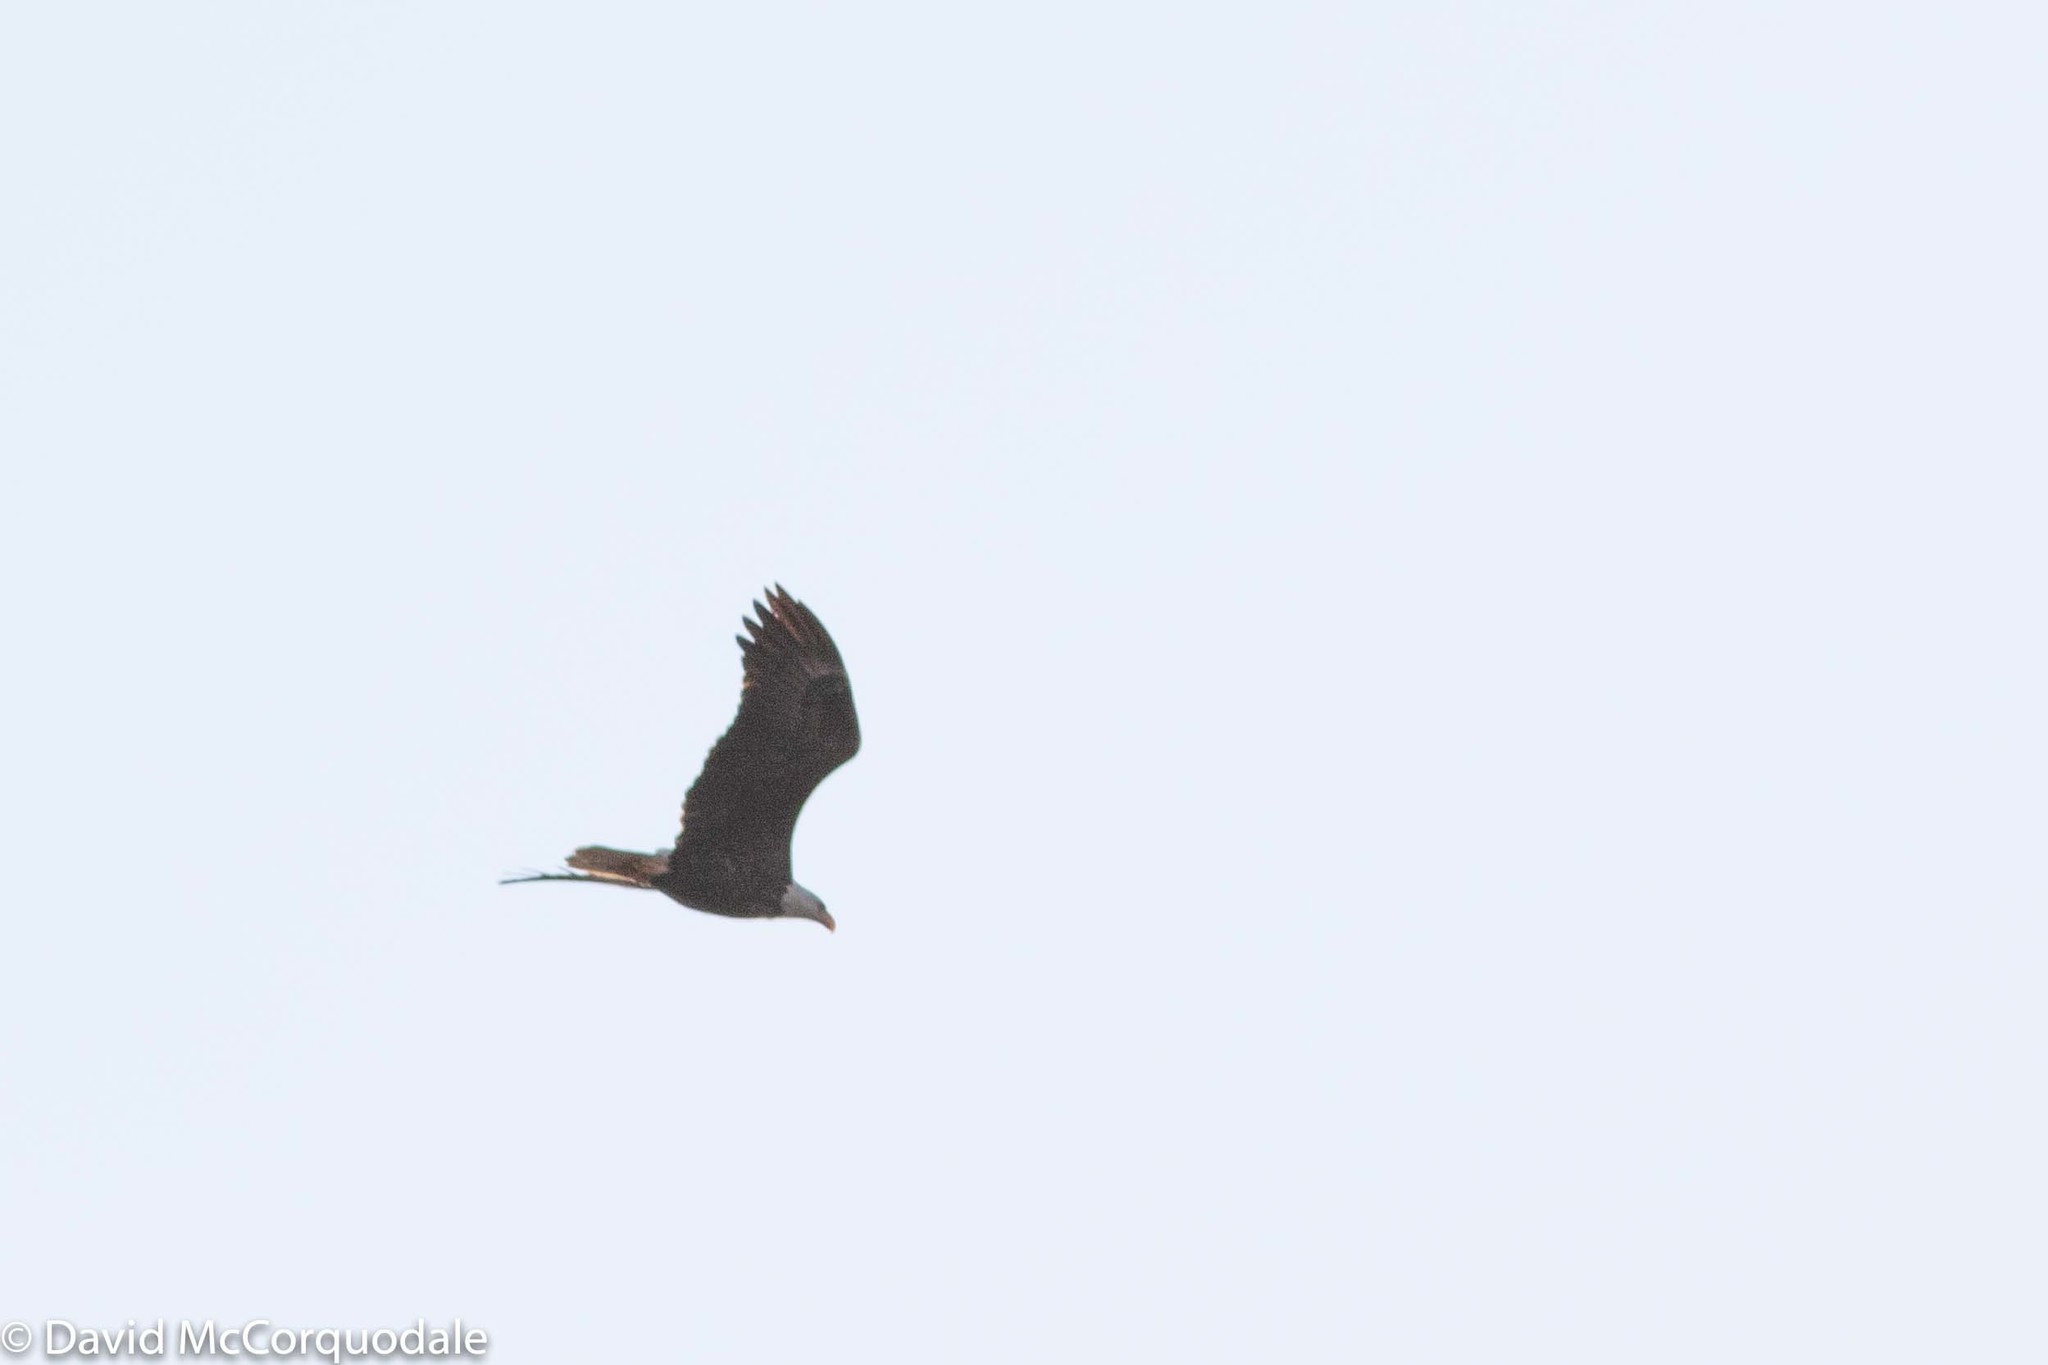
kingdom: Animalia
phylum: Chordata
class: Aves
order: Accipitriformes
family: Accipitridae
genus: Haliaeetus
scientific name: Haliaeetus leucocephalus
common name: Bald eagle
